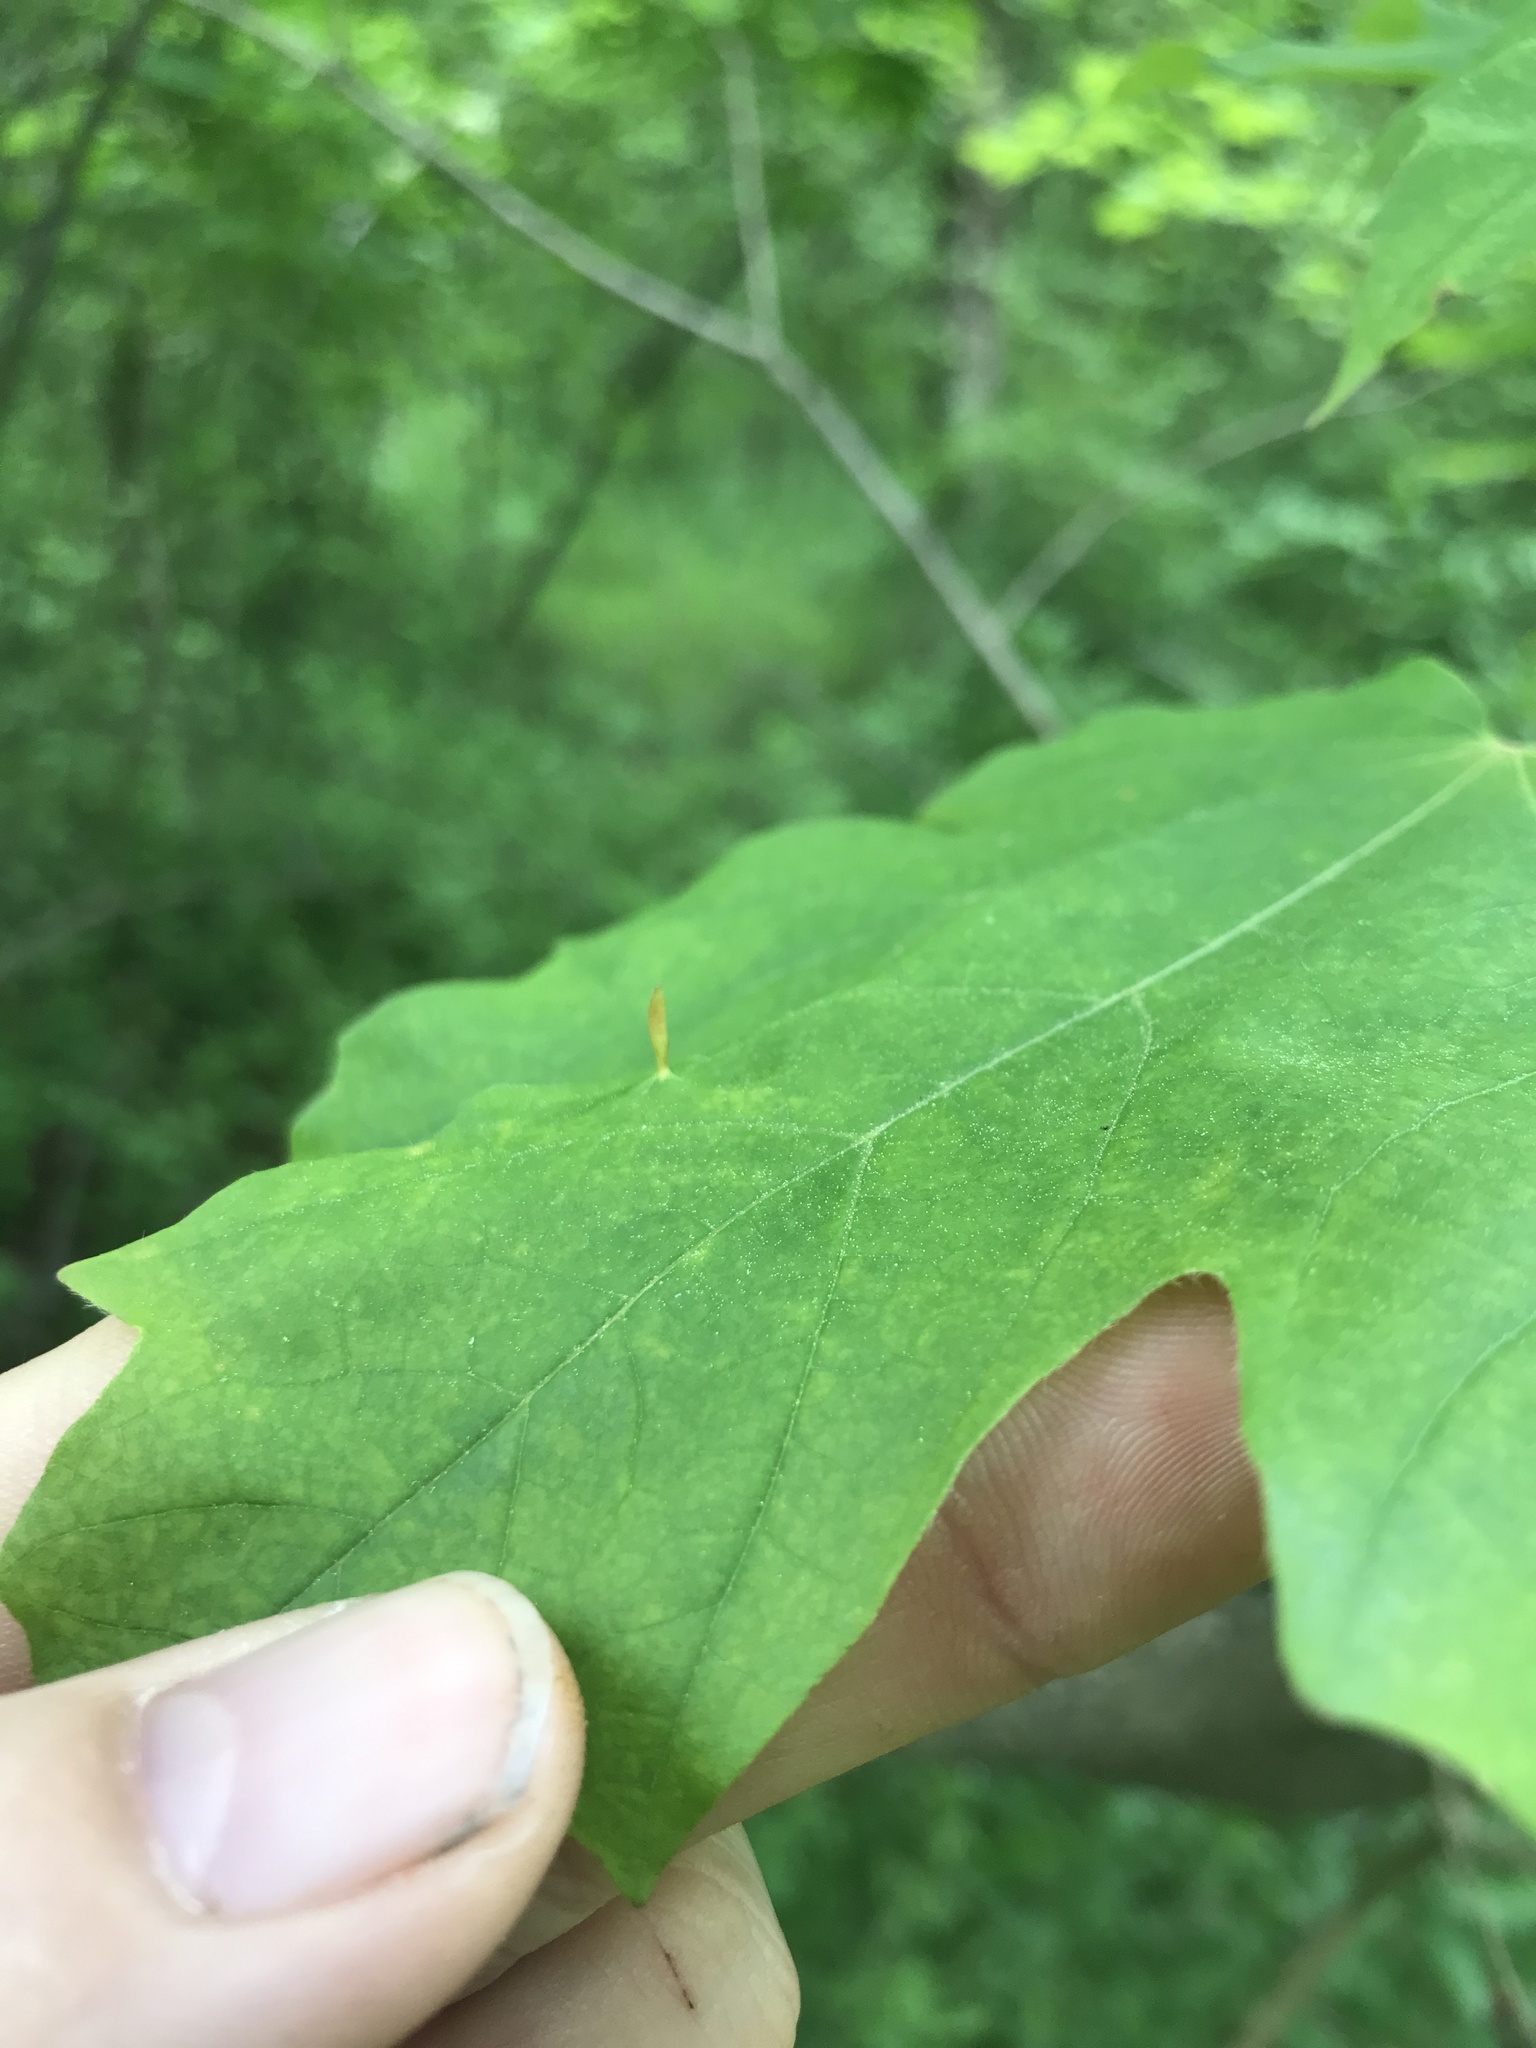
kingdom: Animalia
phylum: Arthropoda
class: Arachnida
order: Trombidiformes
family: Eriophyidae
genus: Vasates
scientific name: Vasates aceriscrumena
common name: Maple spindle gall mite
